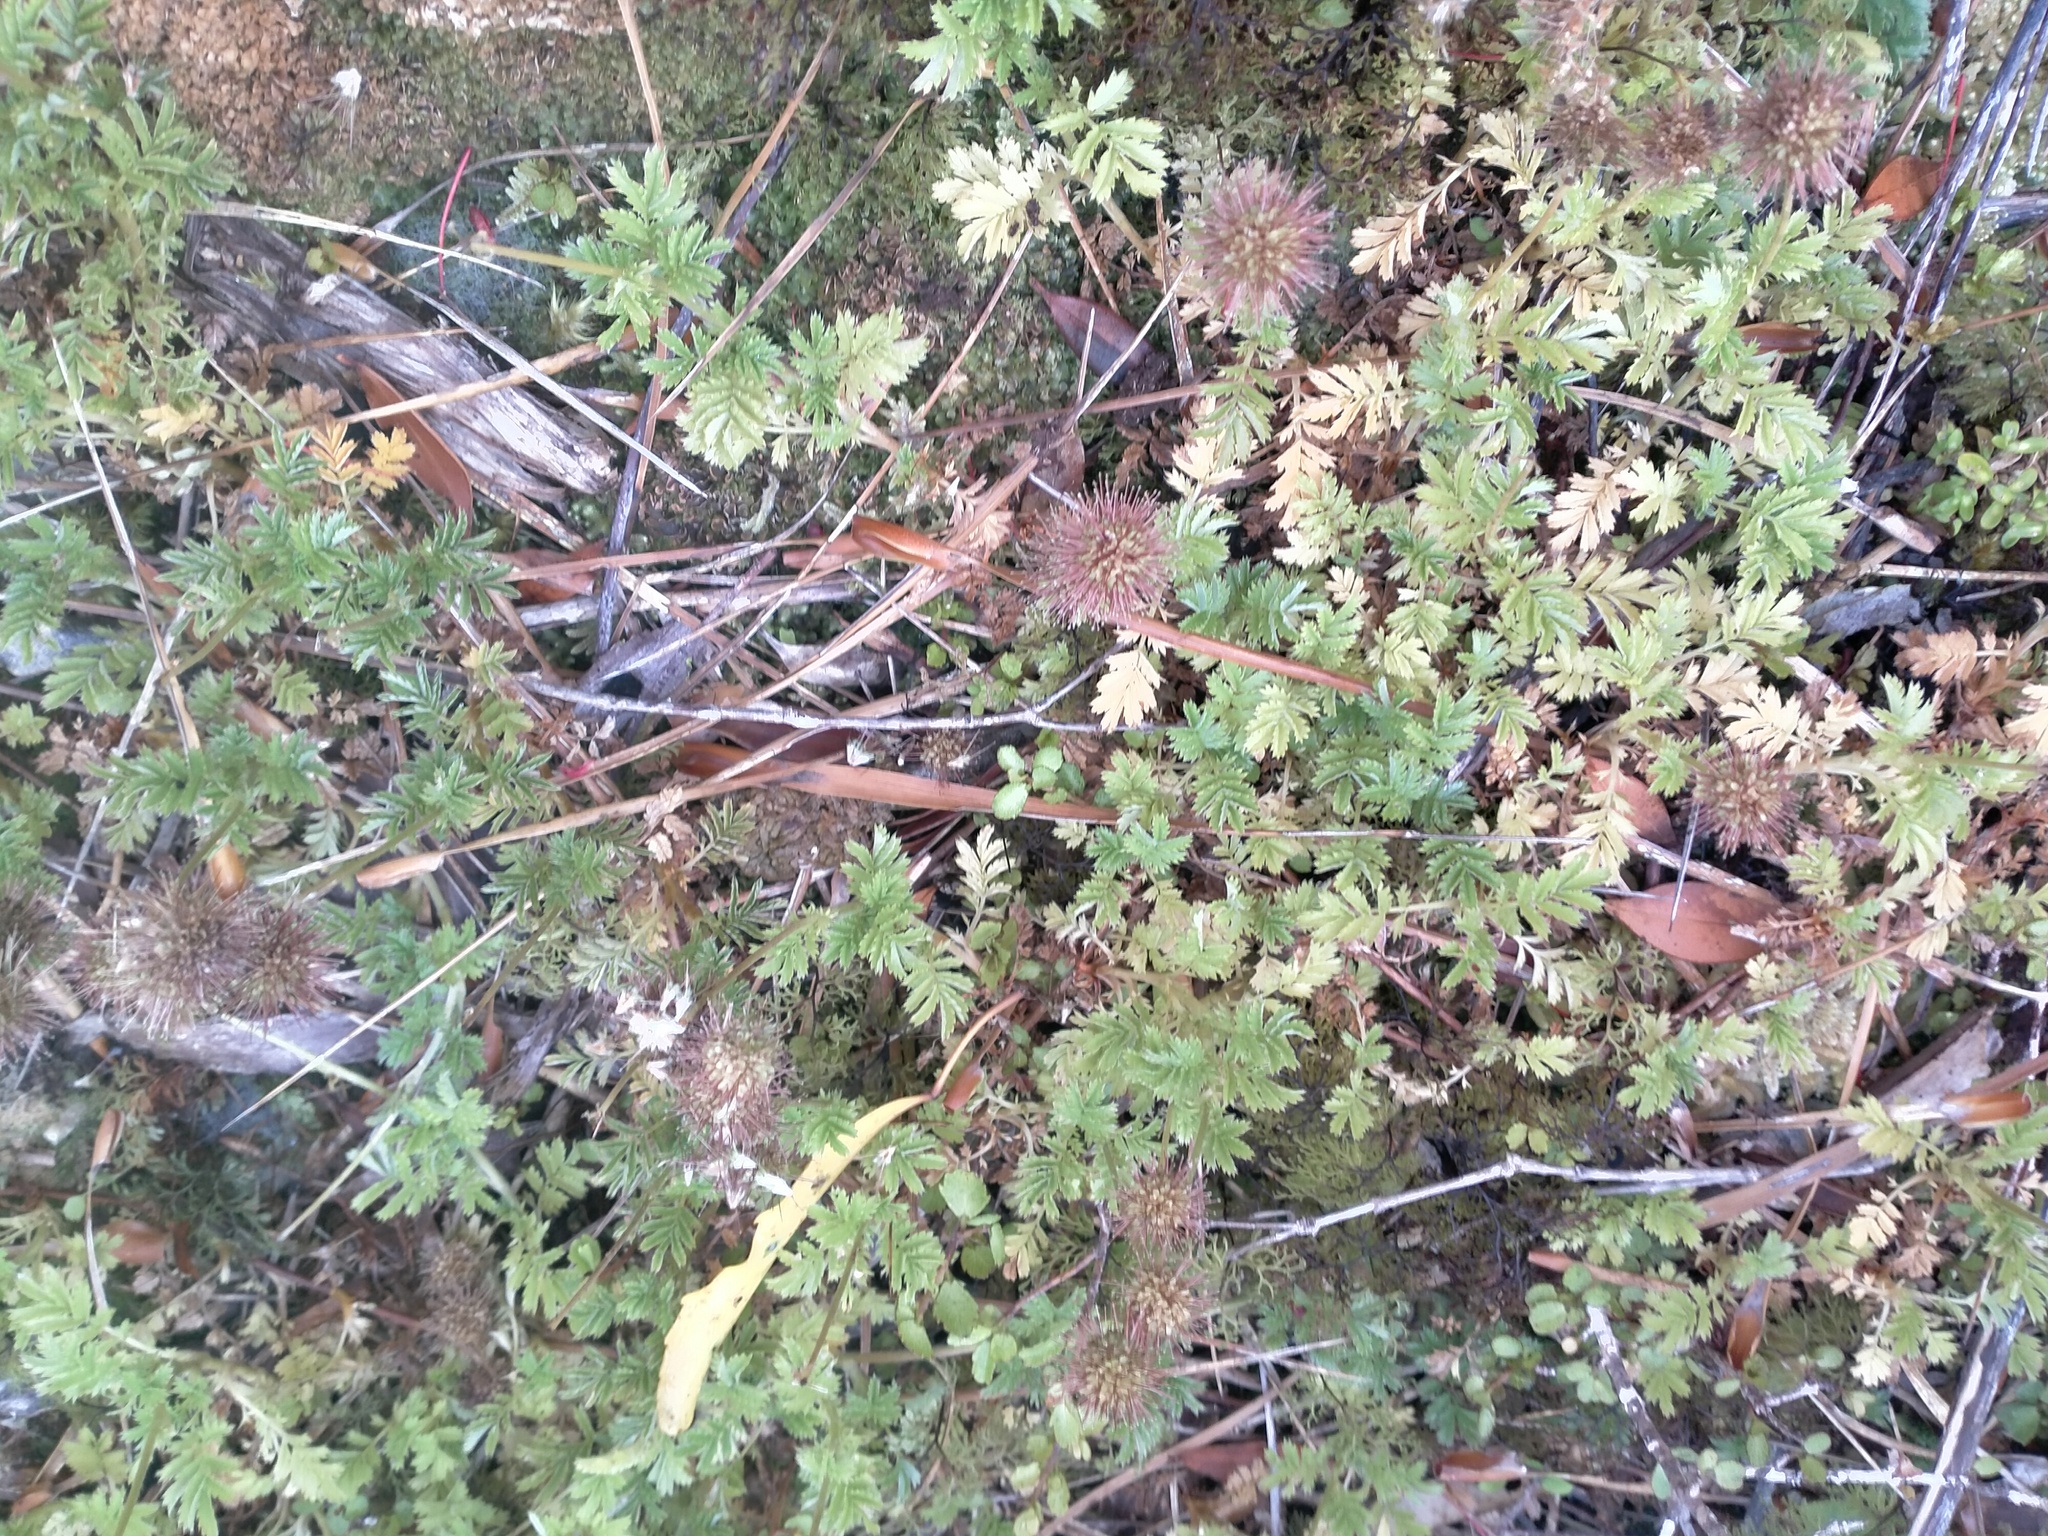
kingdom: Plantae
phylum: Tracheophyta
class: Magnoliopsida
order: Rosales
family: Rosaceae
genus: Acaena
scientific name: Acaena minor
